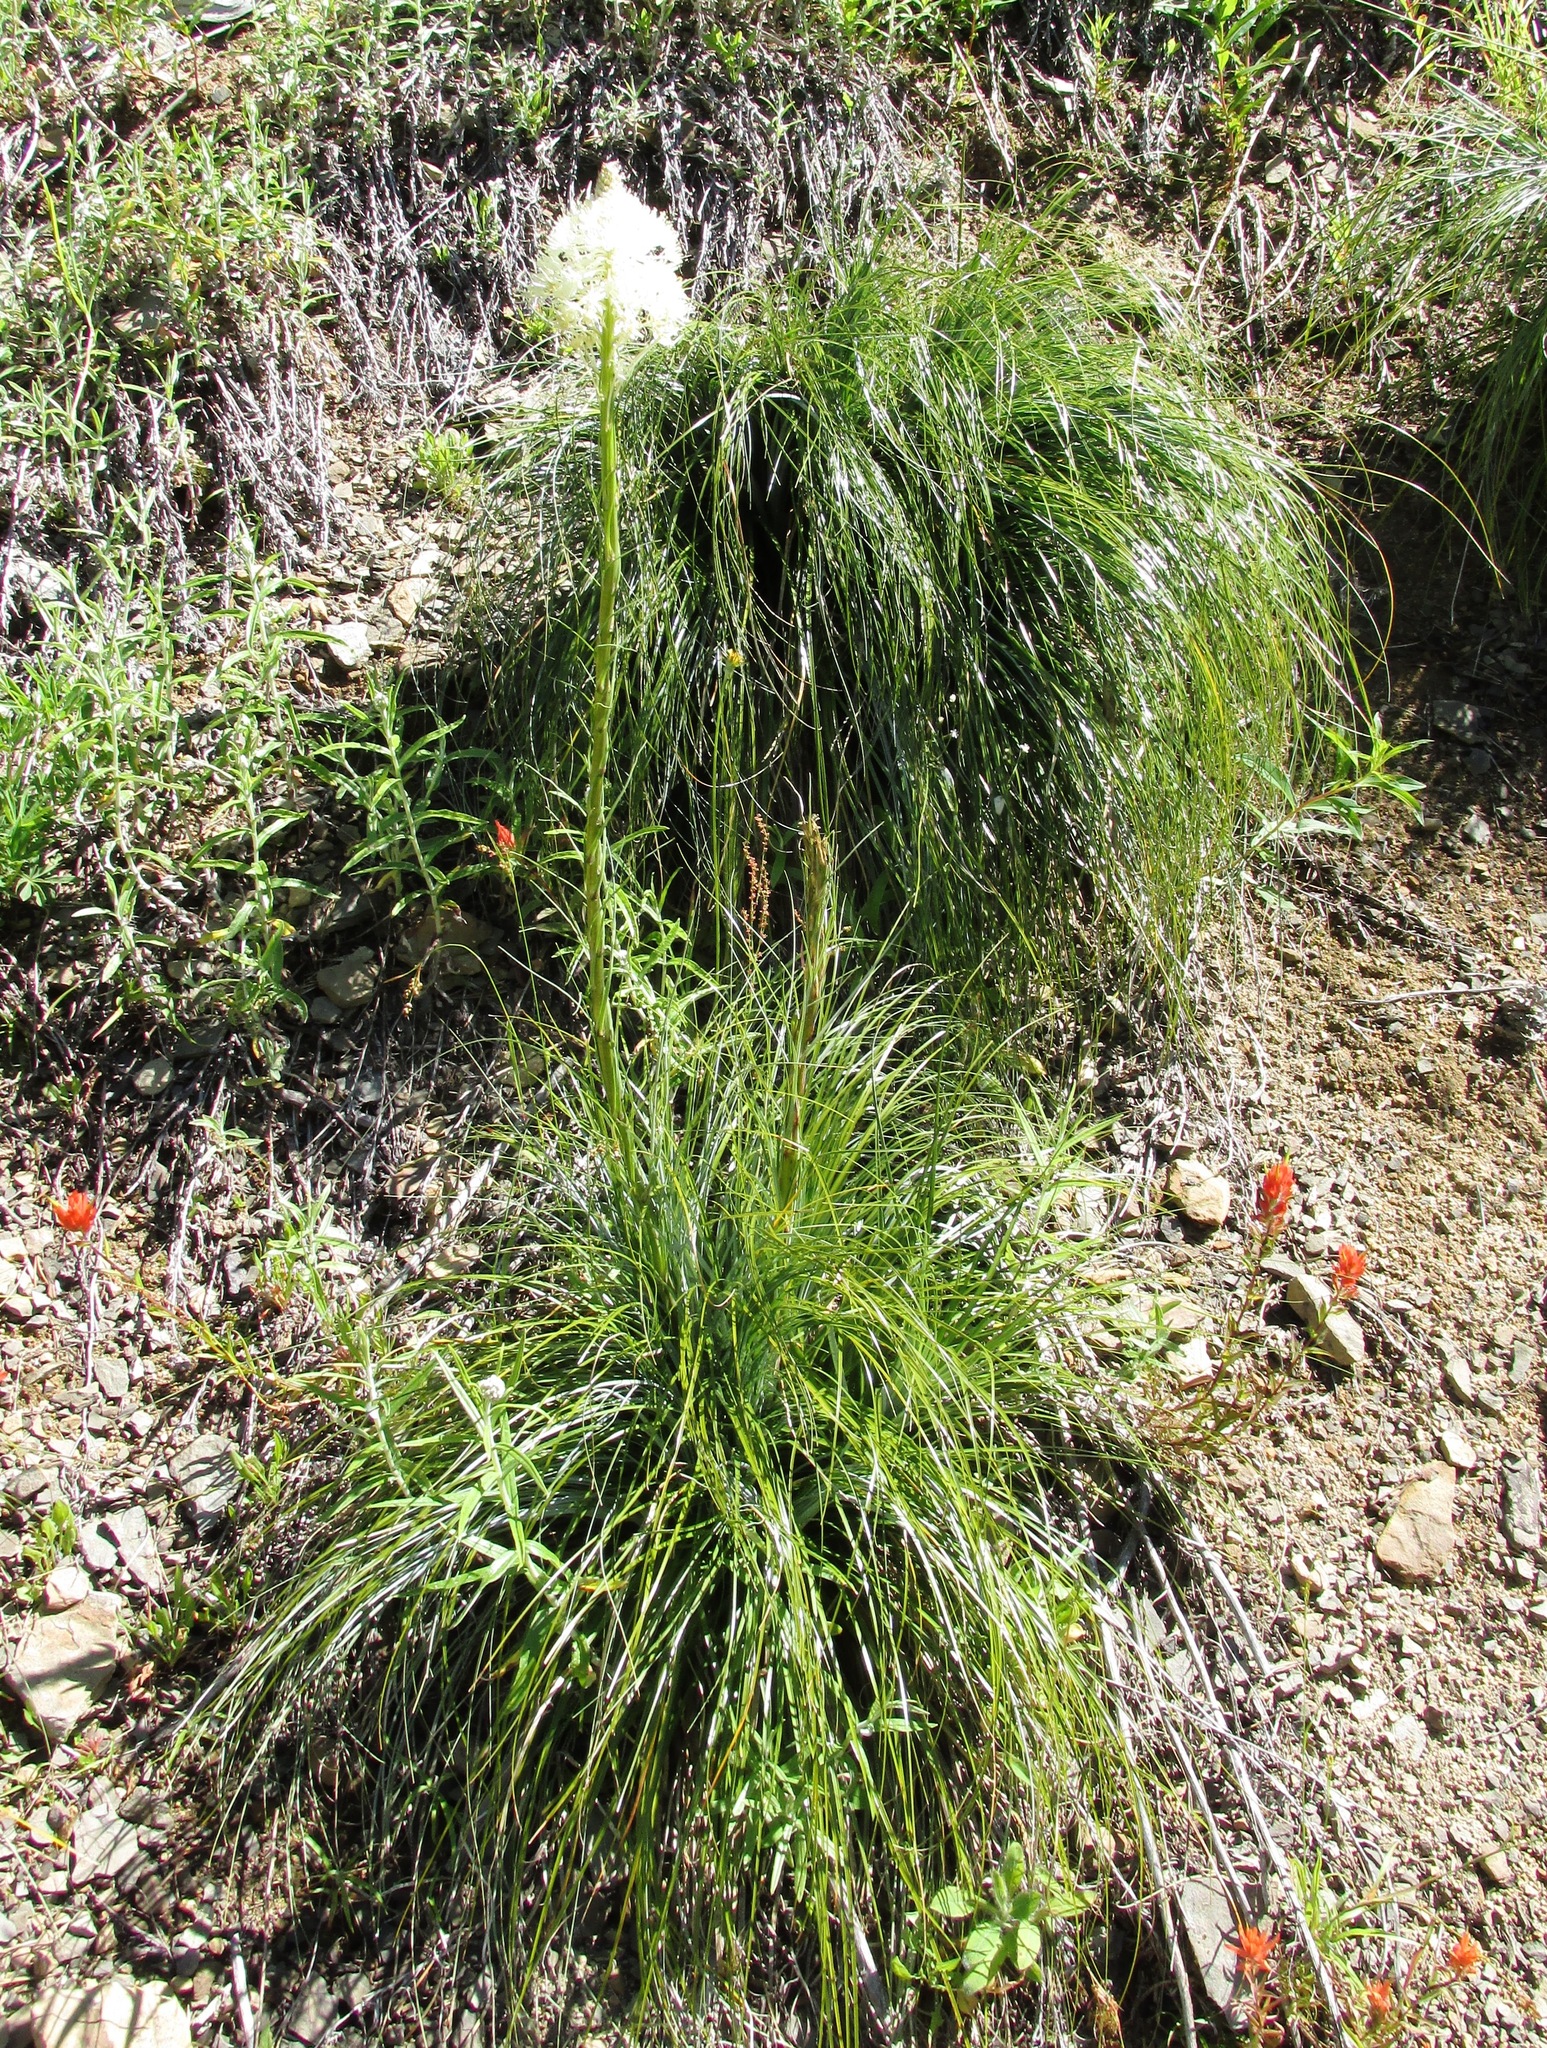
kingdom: Plantae
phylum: Tracheophyta
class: Liliopsida
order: Liliales
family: Melanthiaceae
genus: Xerophyllum
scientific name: Xerophyllum tenax
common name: Bear-grass
